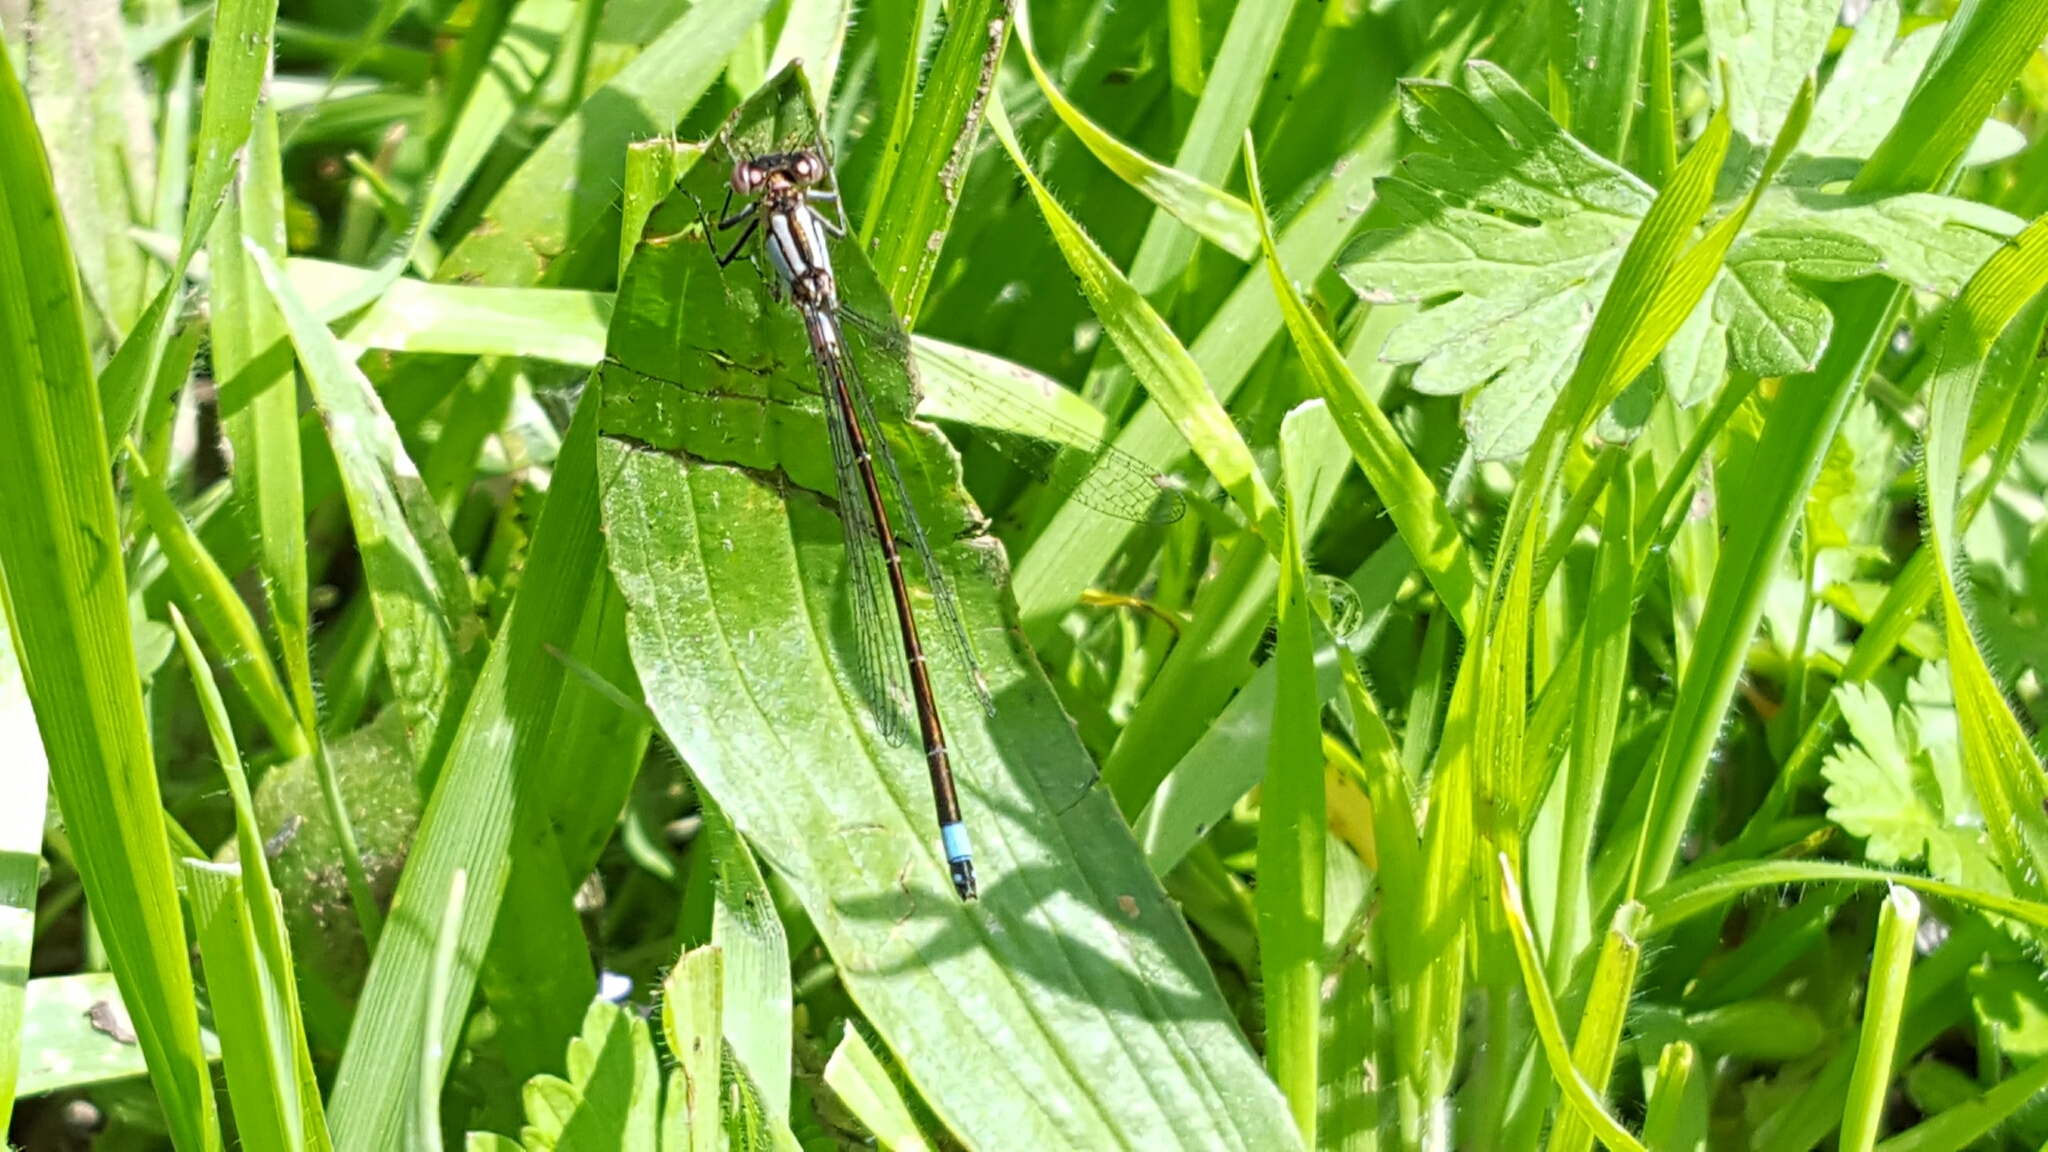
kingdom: Animalia
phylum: Arthropoda
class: Insecta
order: Odonata
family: Coenagrionidae
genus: Ischnura
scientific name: Ischnura cervula
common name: Pacific forktail
